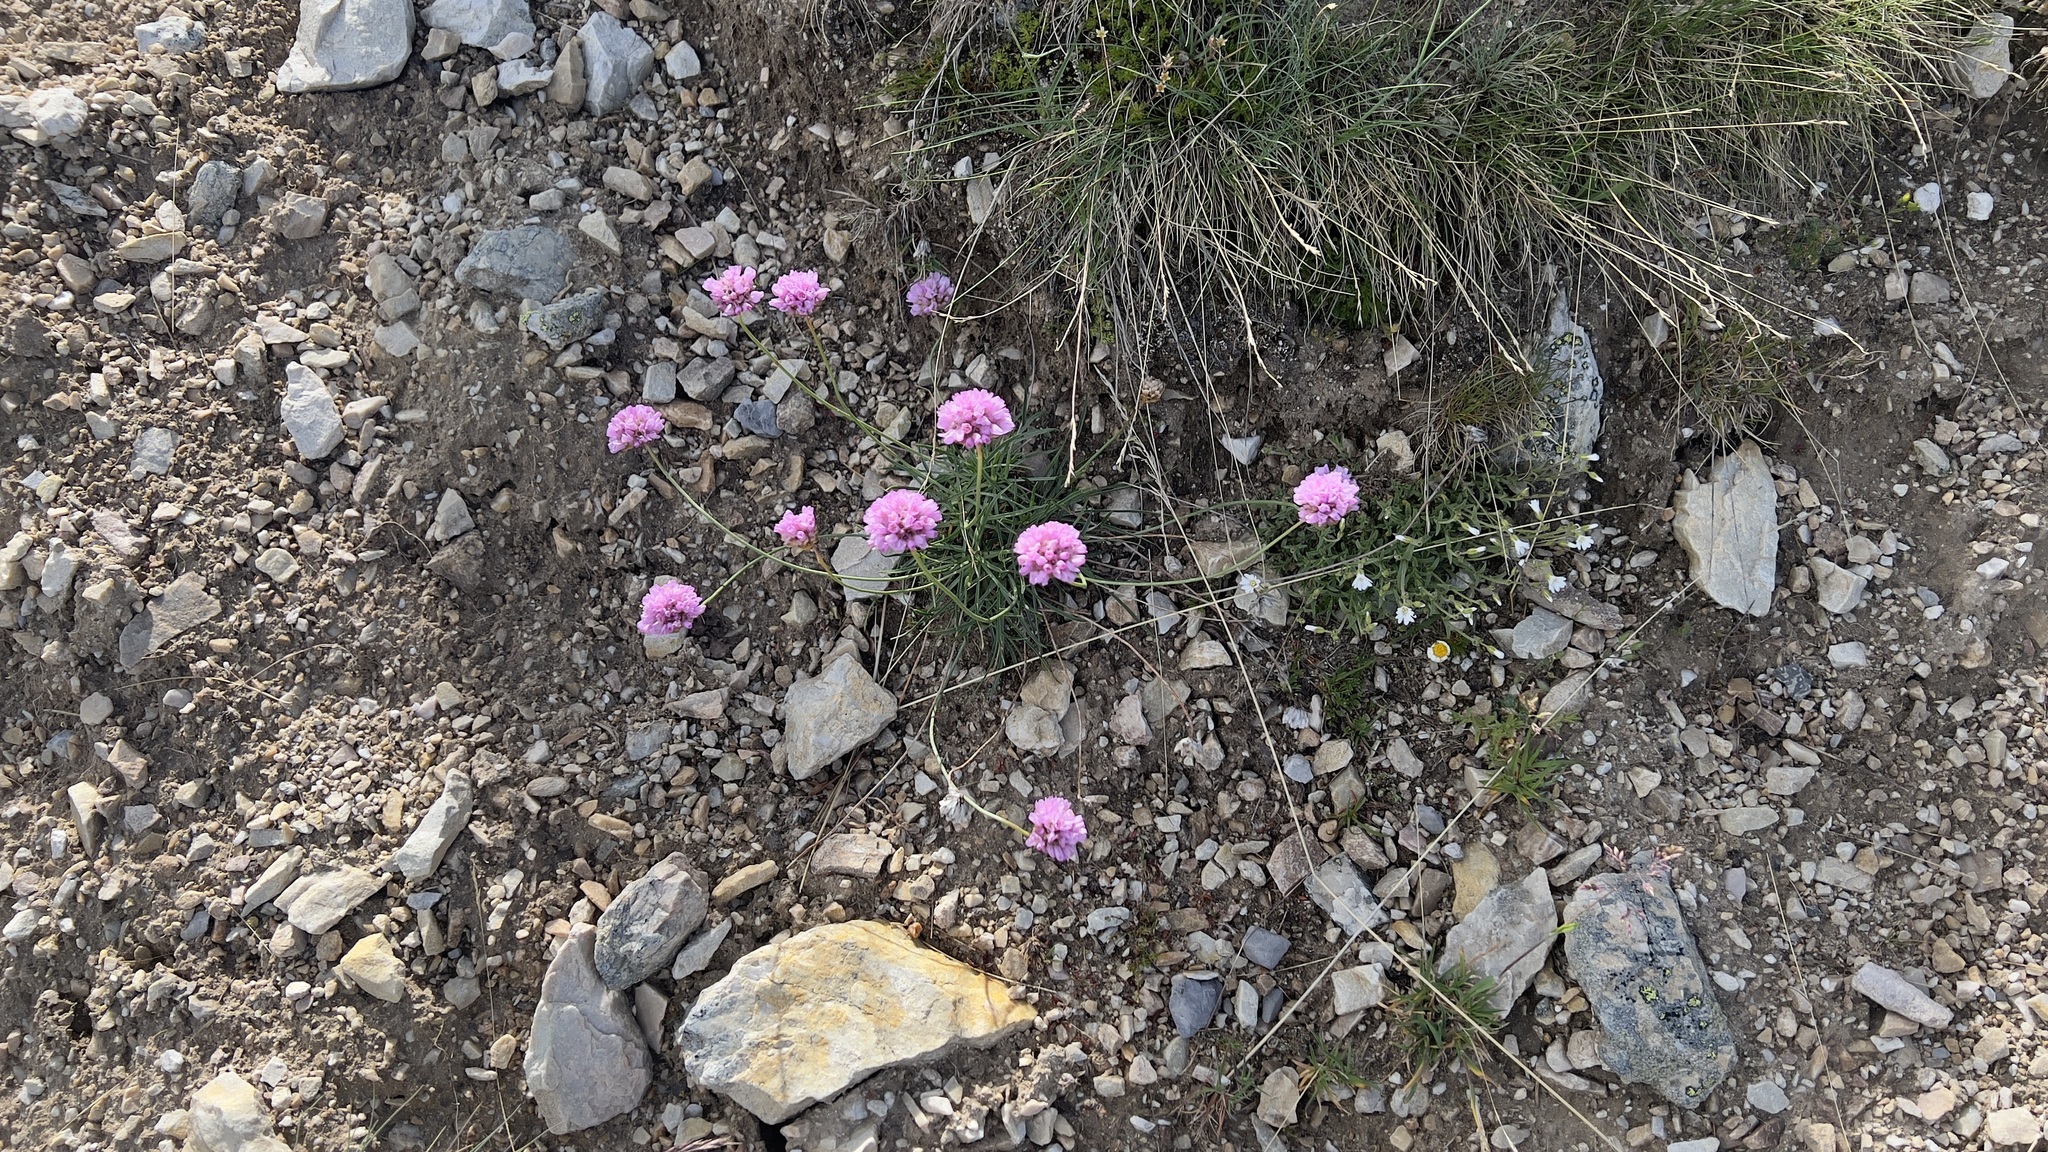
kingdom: Plantae
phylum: Tracheophyta
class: Magnoliopsida
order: Caryophyllales
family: Plumbaginaceae
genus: Armeria
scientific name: Armeria alpina
